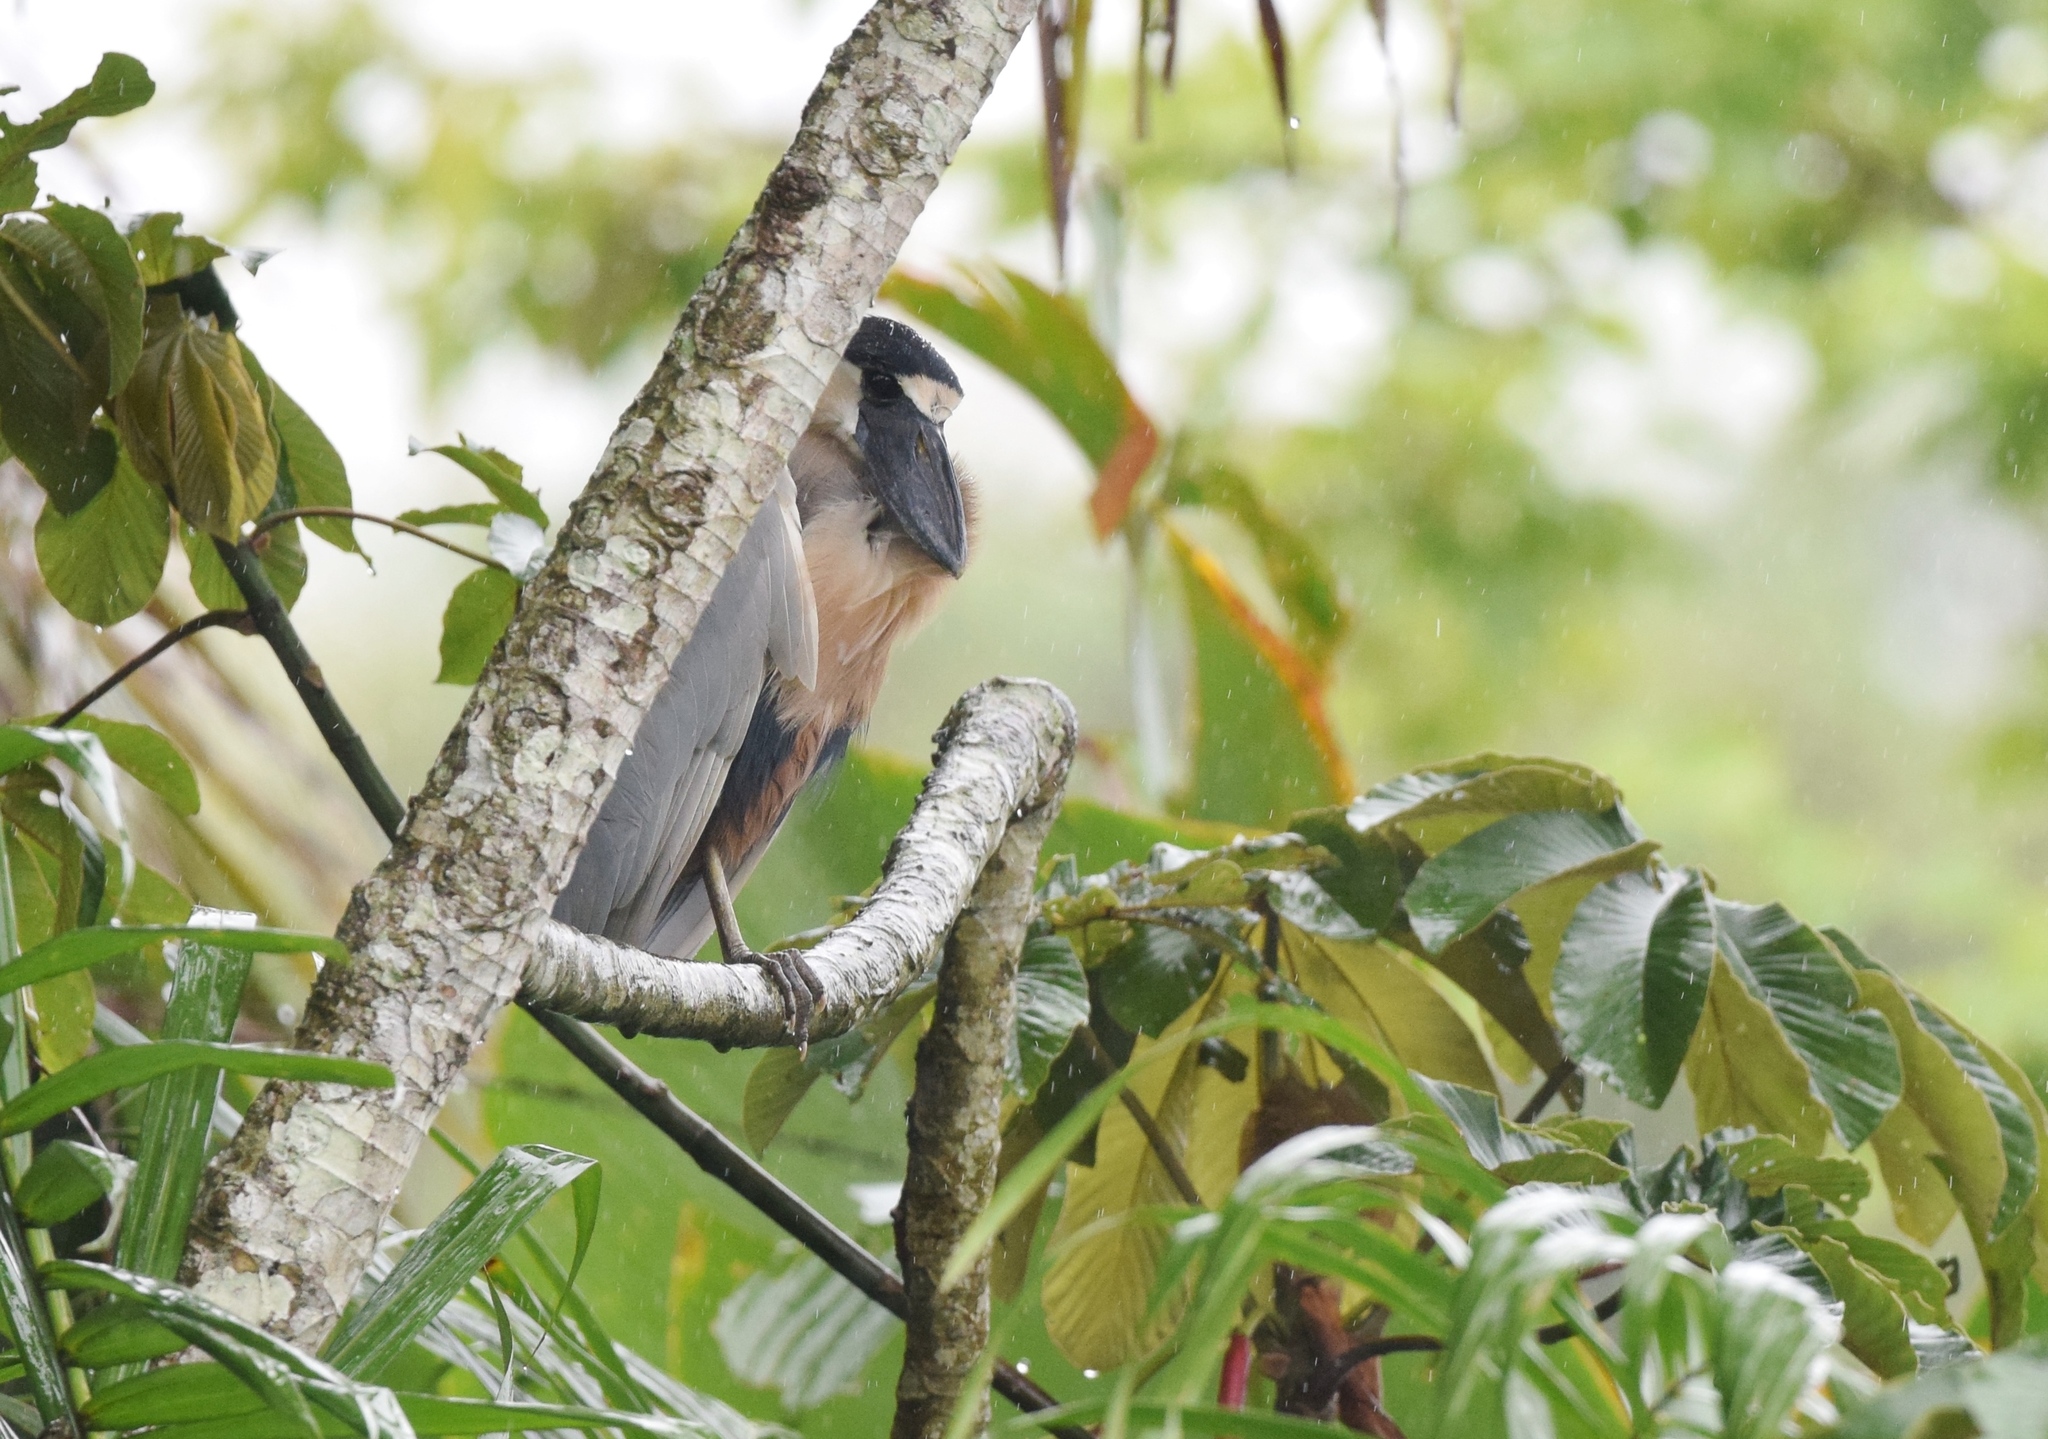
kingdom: Animalia
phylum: Chordata
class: Aves
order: Pelecaniformes
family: Ardeidae
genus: Cochlearius
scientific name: Cochlearius cochlearius
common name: Boat-billed heron
